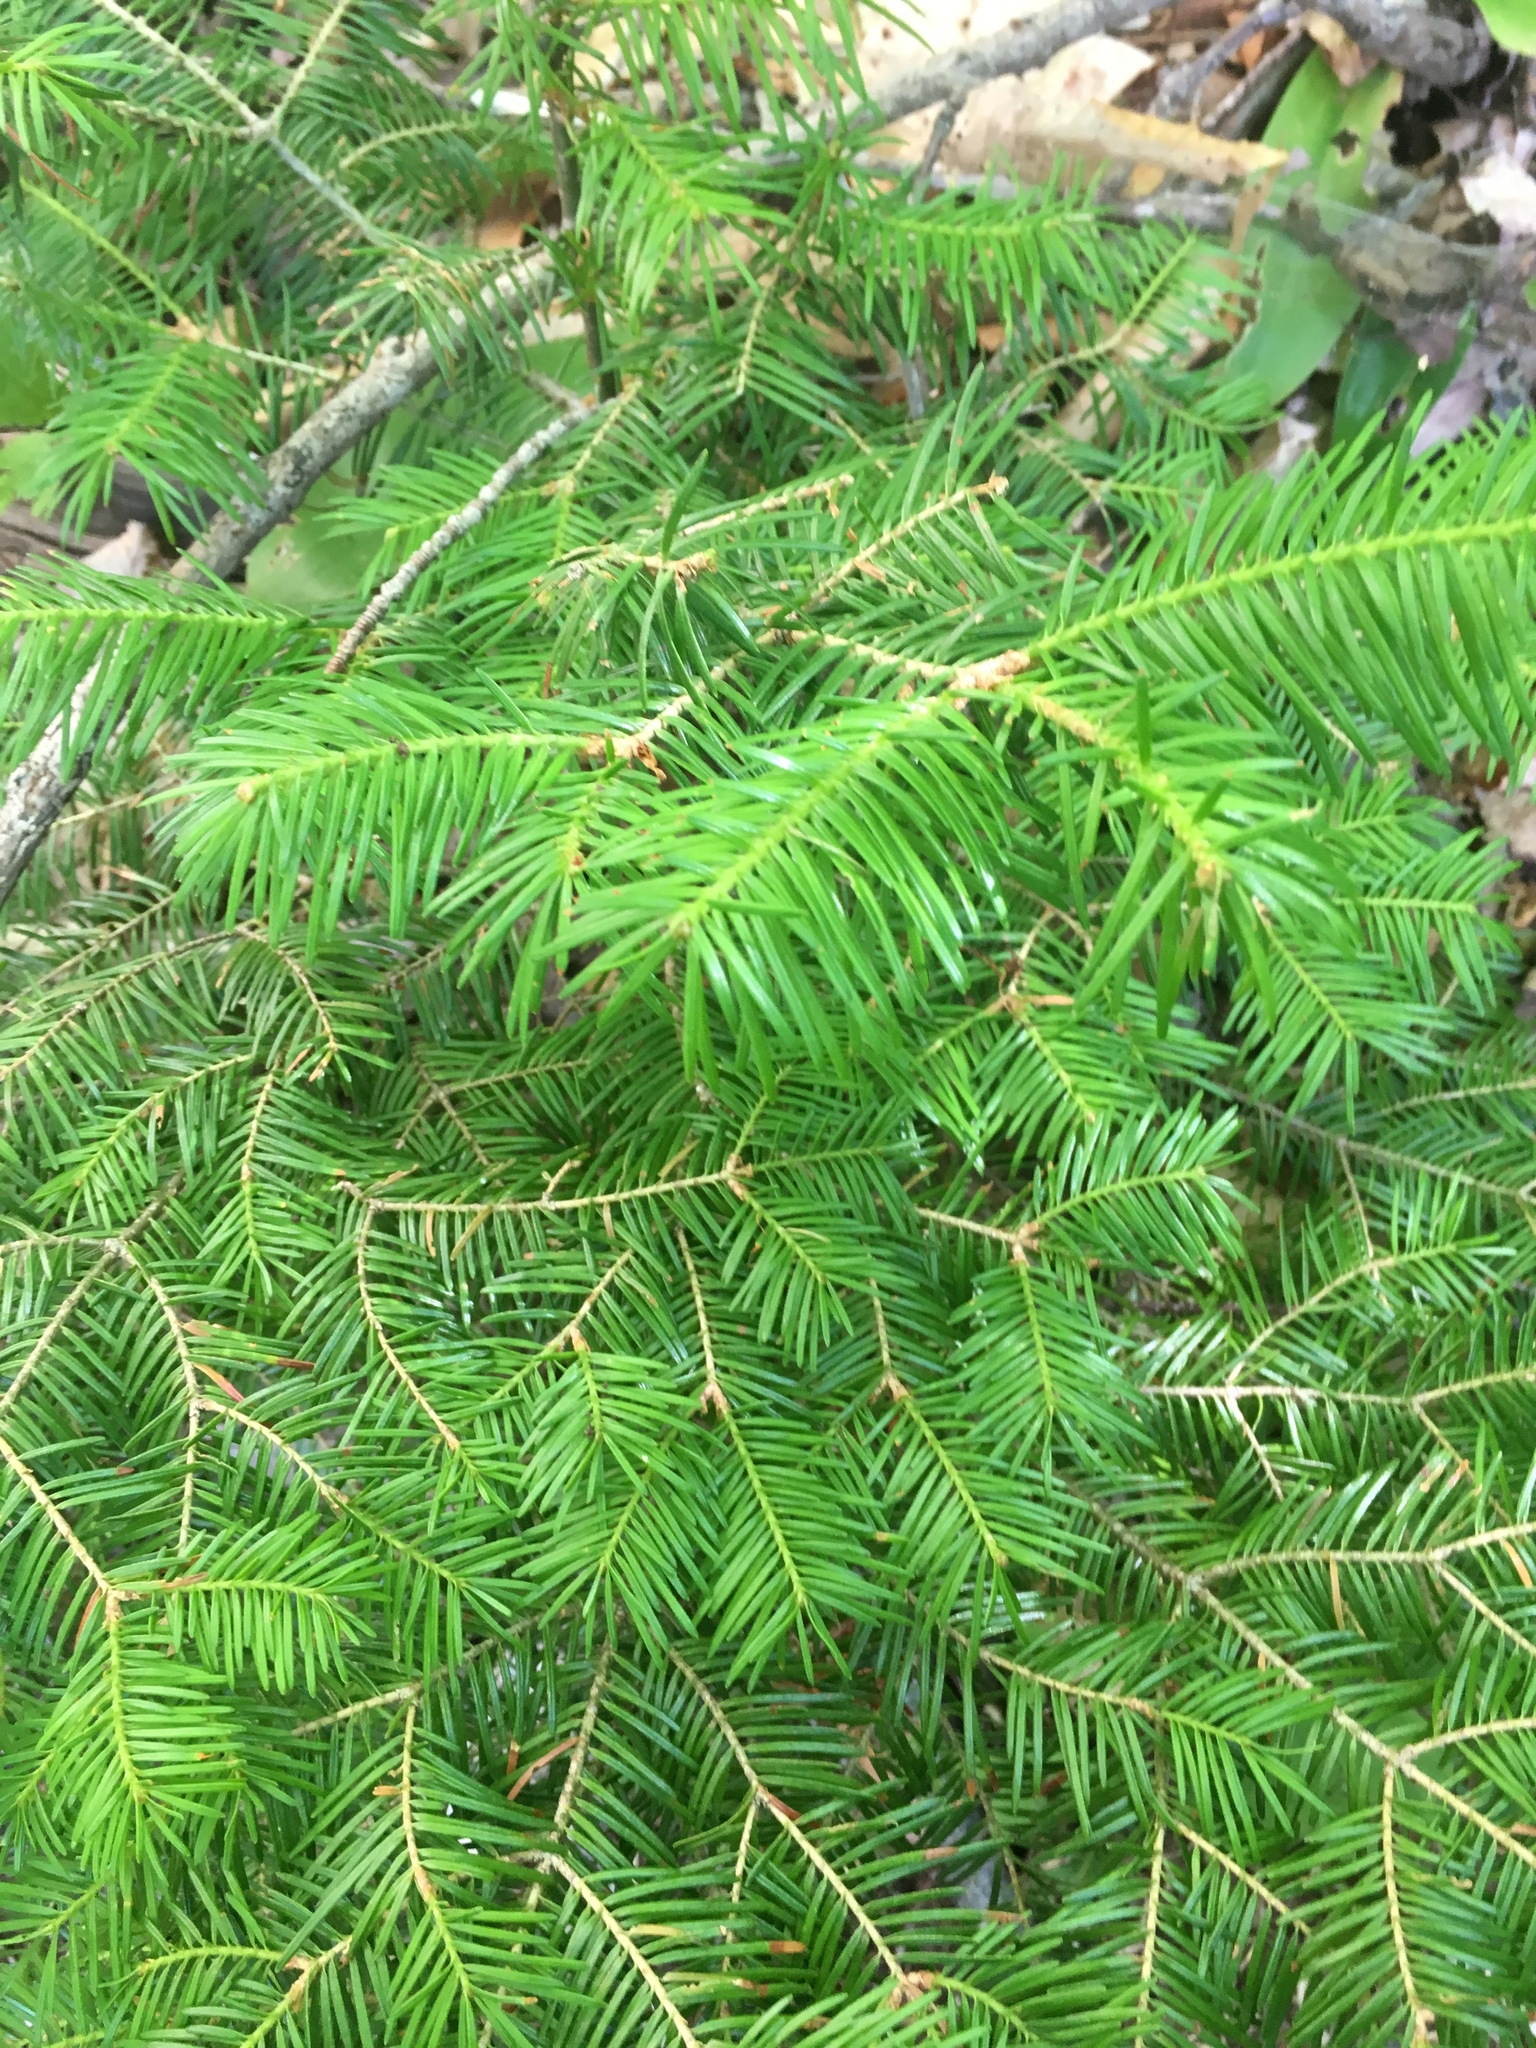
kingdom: Plantae
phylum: Tracheophyta
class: Pinopsida
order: Pinales
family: Pinaceae
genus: Abies
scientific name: Abies balsamea
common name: Balsam fir
